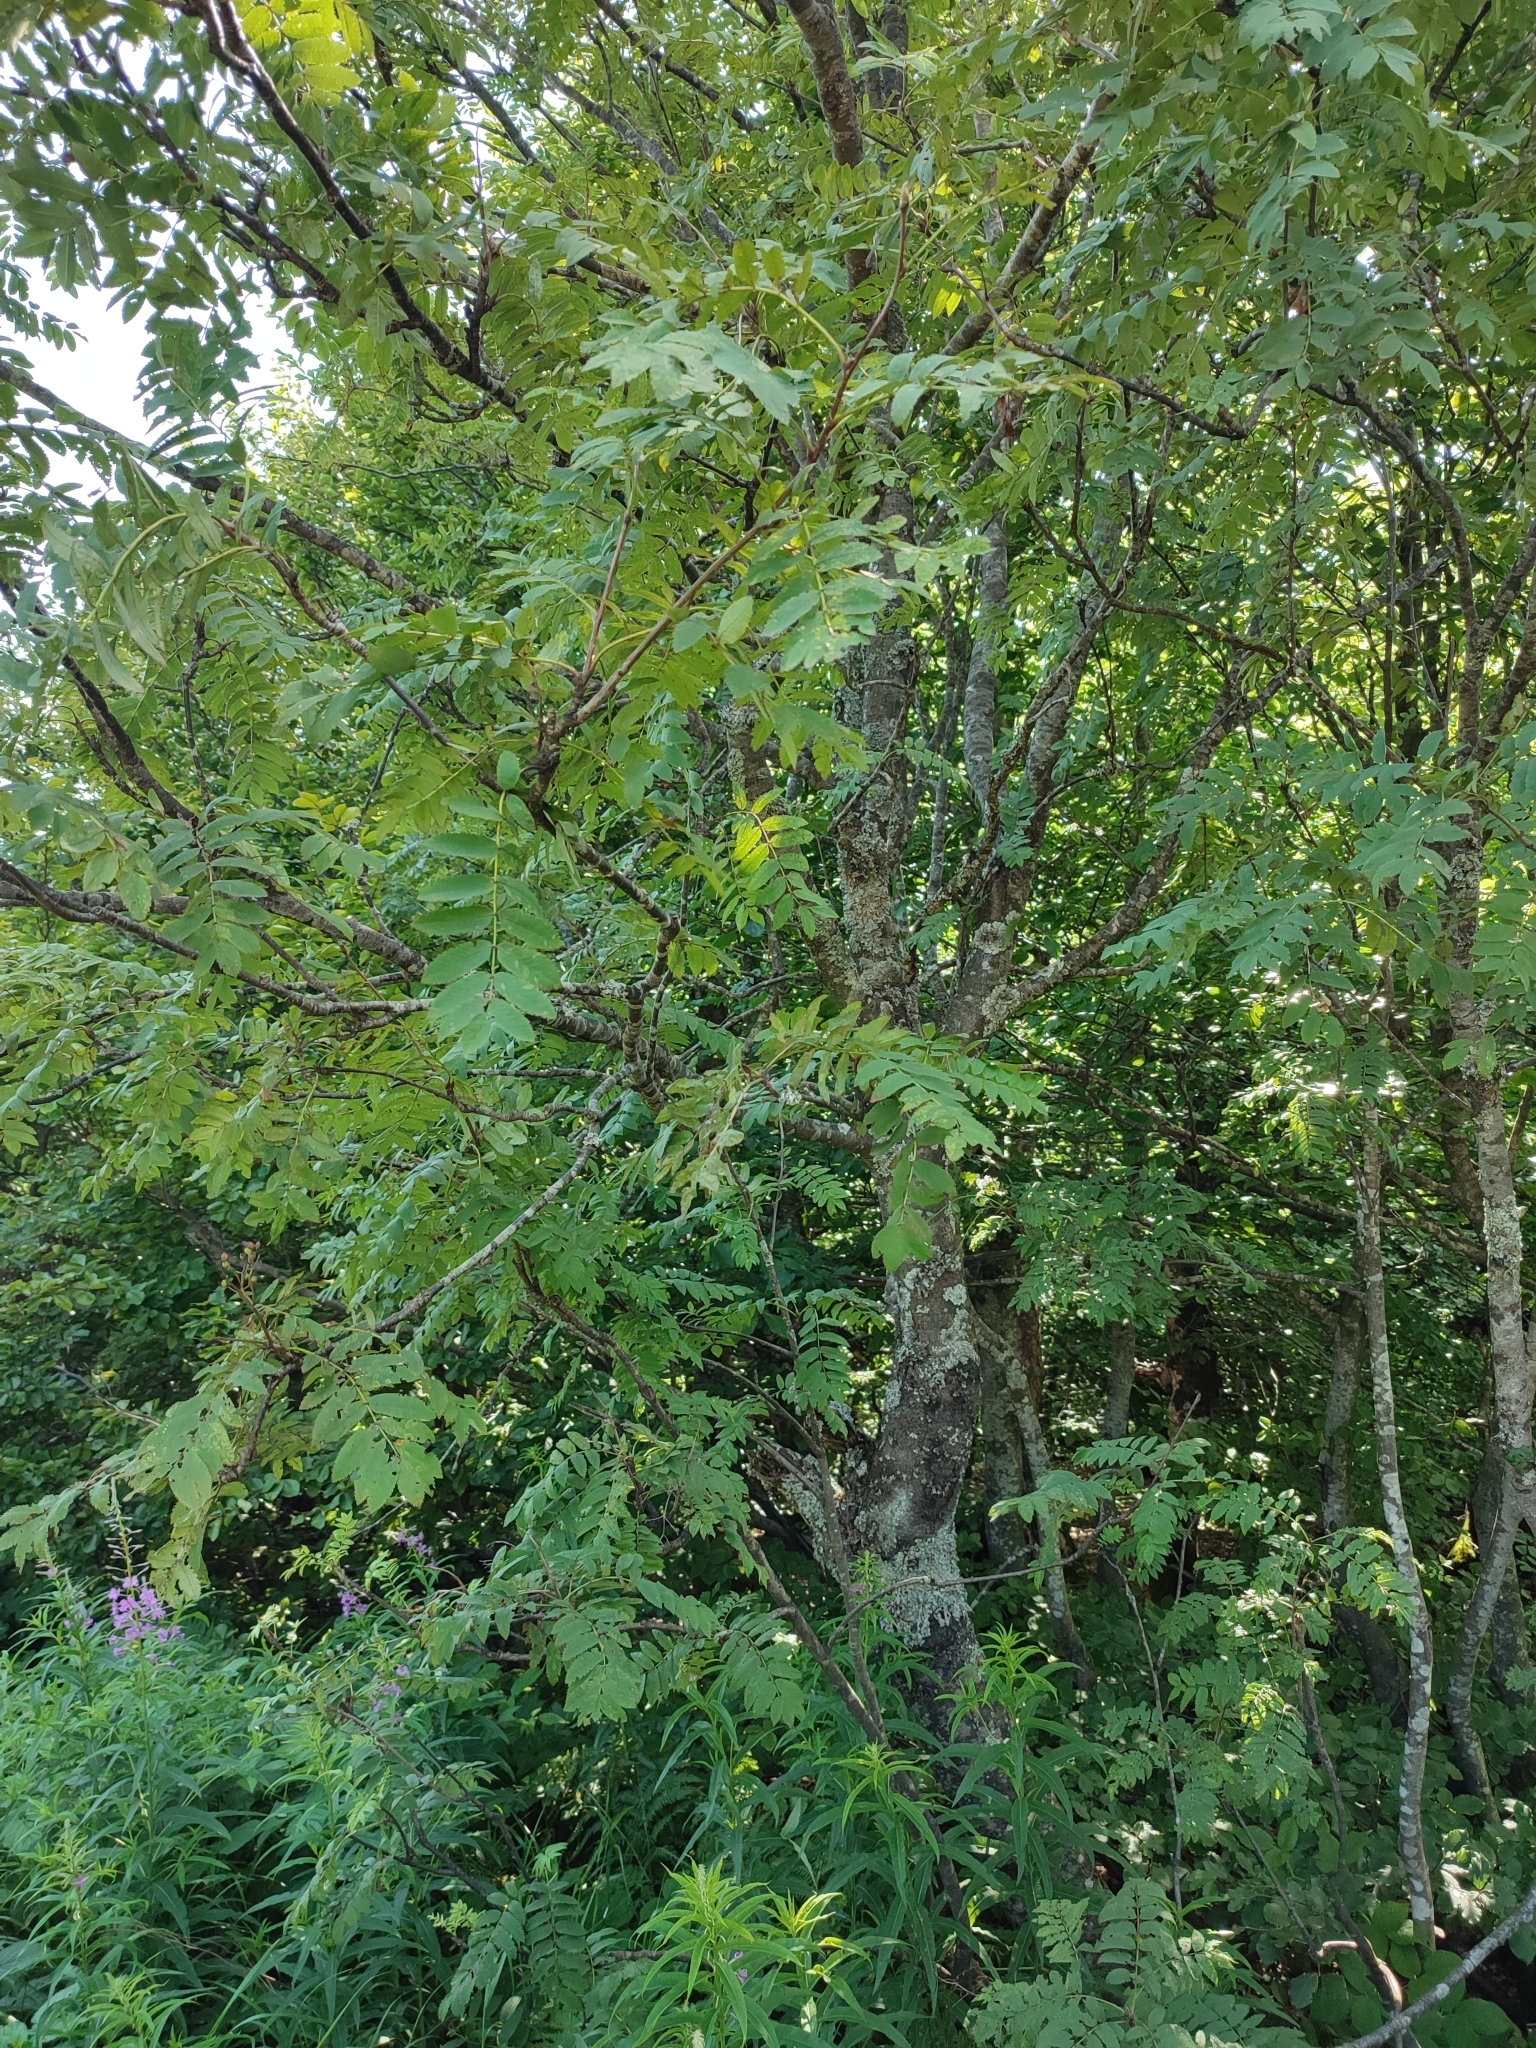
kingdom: Plantae
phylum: Tracheophyta
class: Magnoliopsida
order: Rosales
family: Rosaceae
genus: Sorbus
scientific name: Sorbus aucuparia
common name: Rowan
